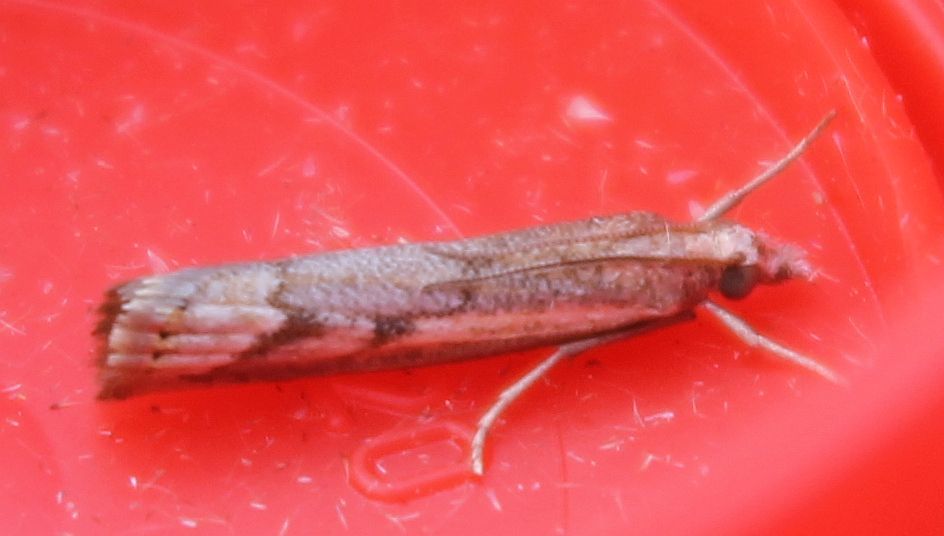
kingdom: Animalia
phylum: Arthropoda
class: Insecta
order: Lepidoptera
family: Crambidae
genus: Agriphila
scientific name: Agriphila geniculea
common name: Elbow-stripe grass-veneer
